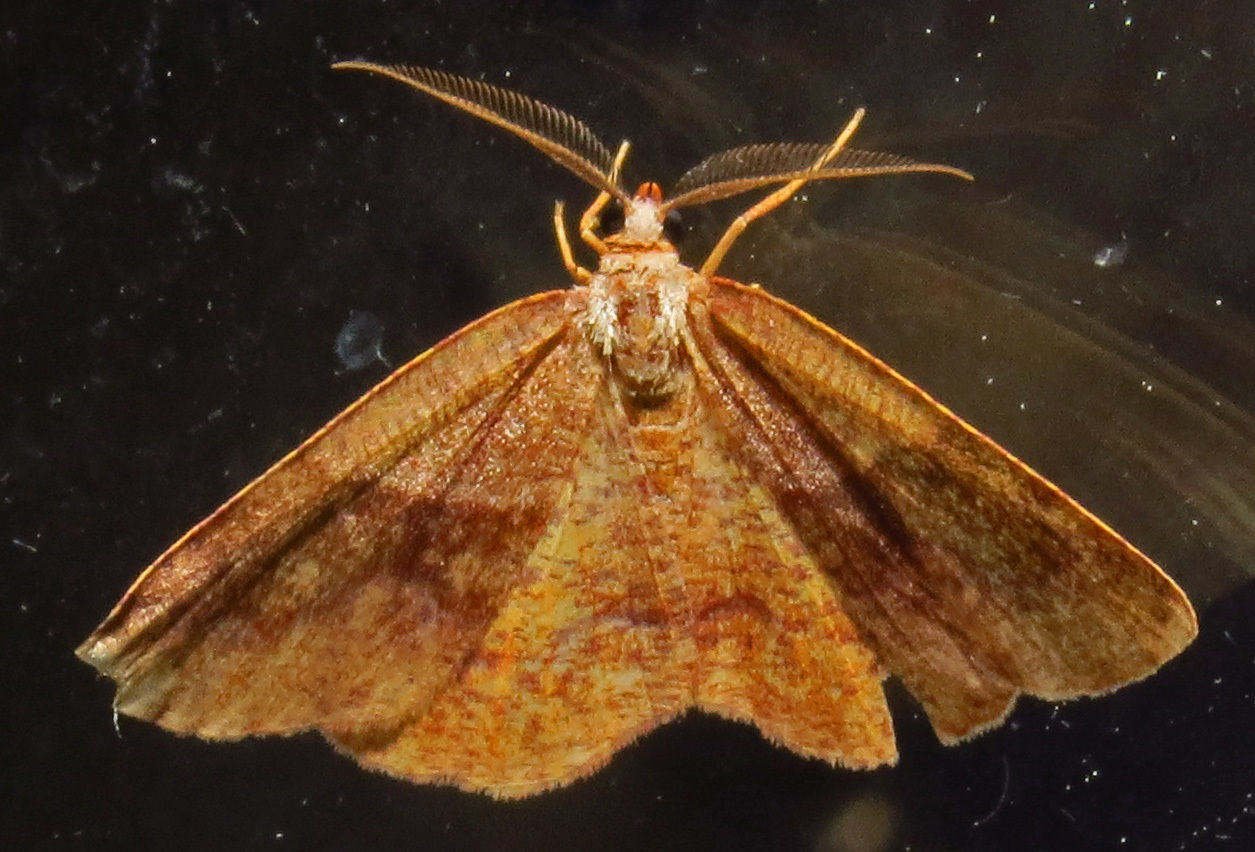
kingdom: Animalia
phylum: Arthropoda
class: Insecta
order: Lepidoptera
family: Geometridae
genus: Plagodis
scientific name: Plagodis pulveraria
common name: Barred umber
